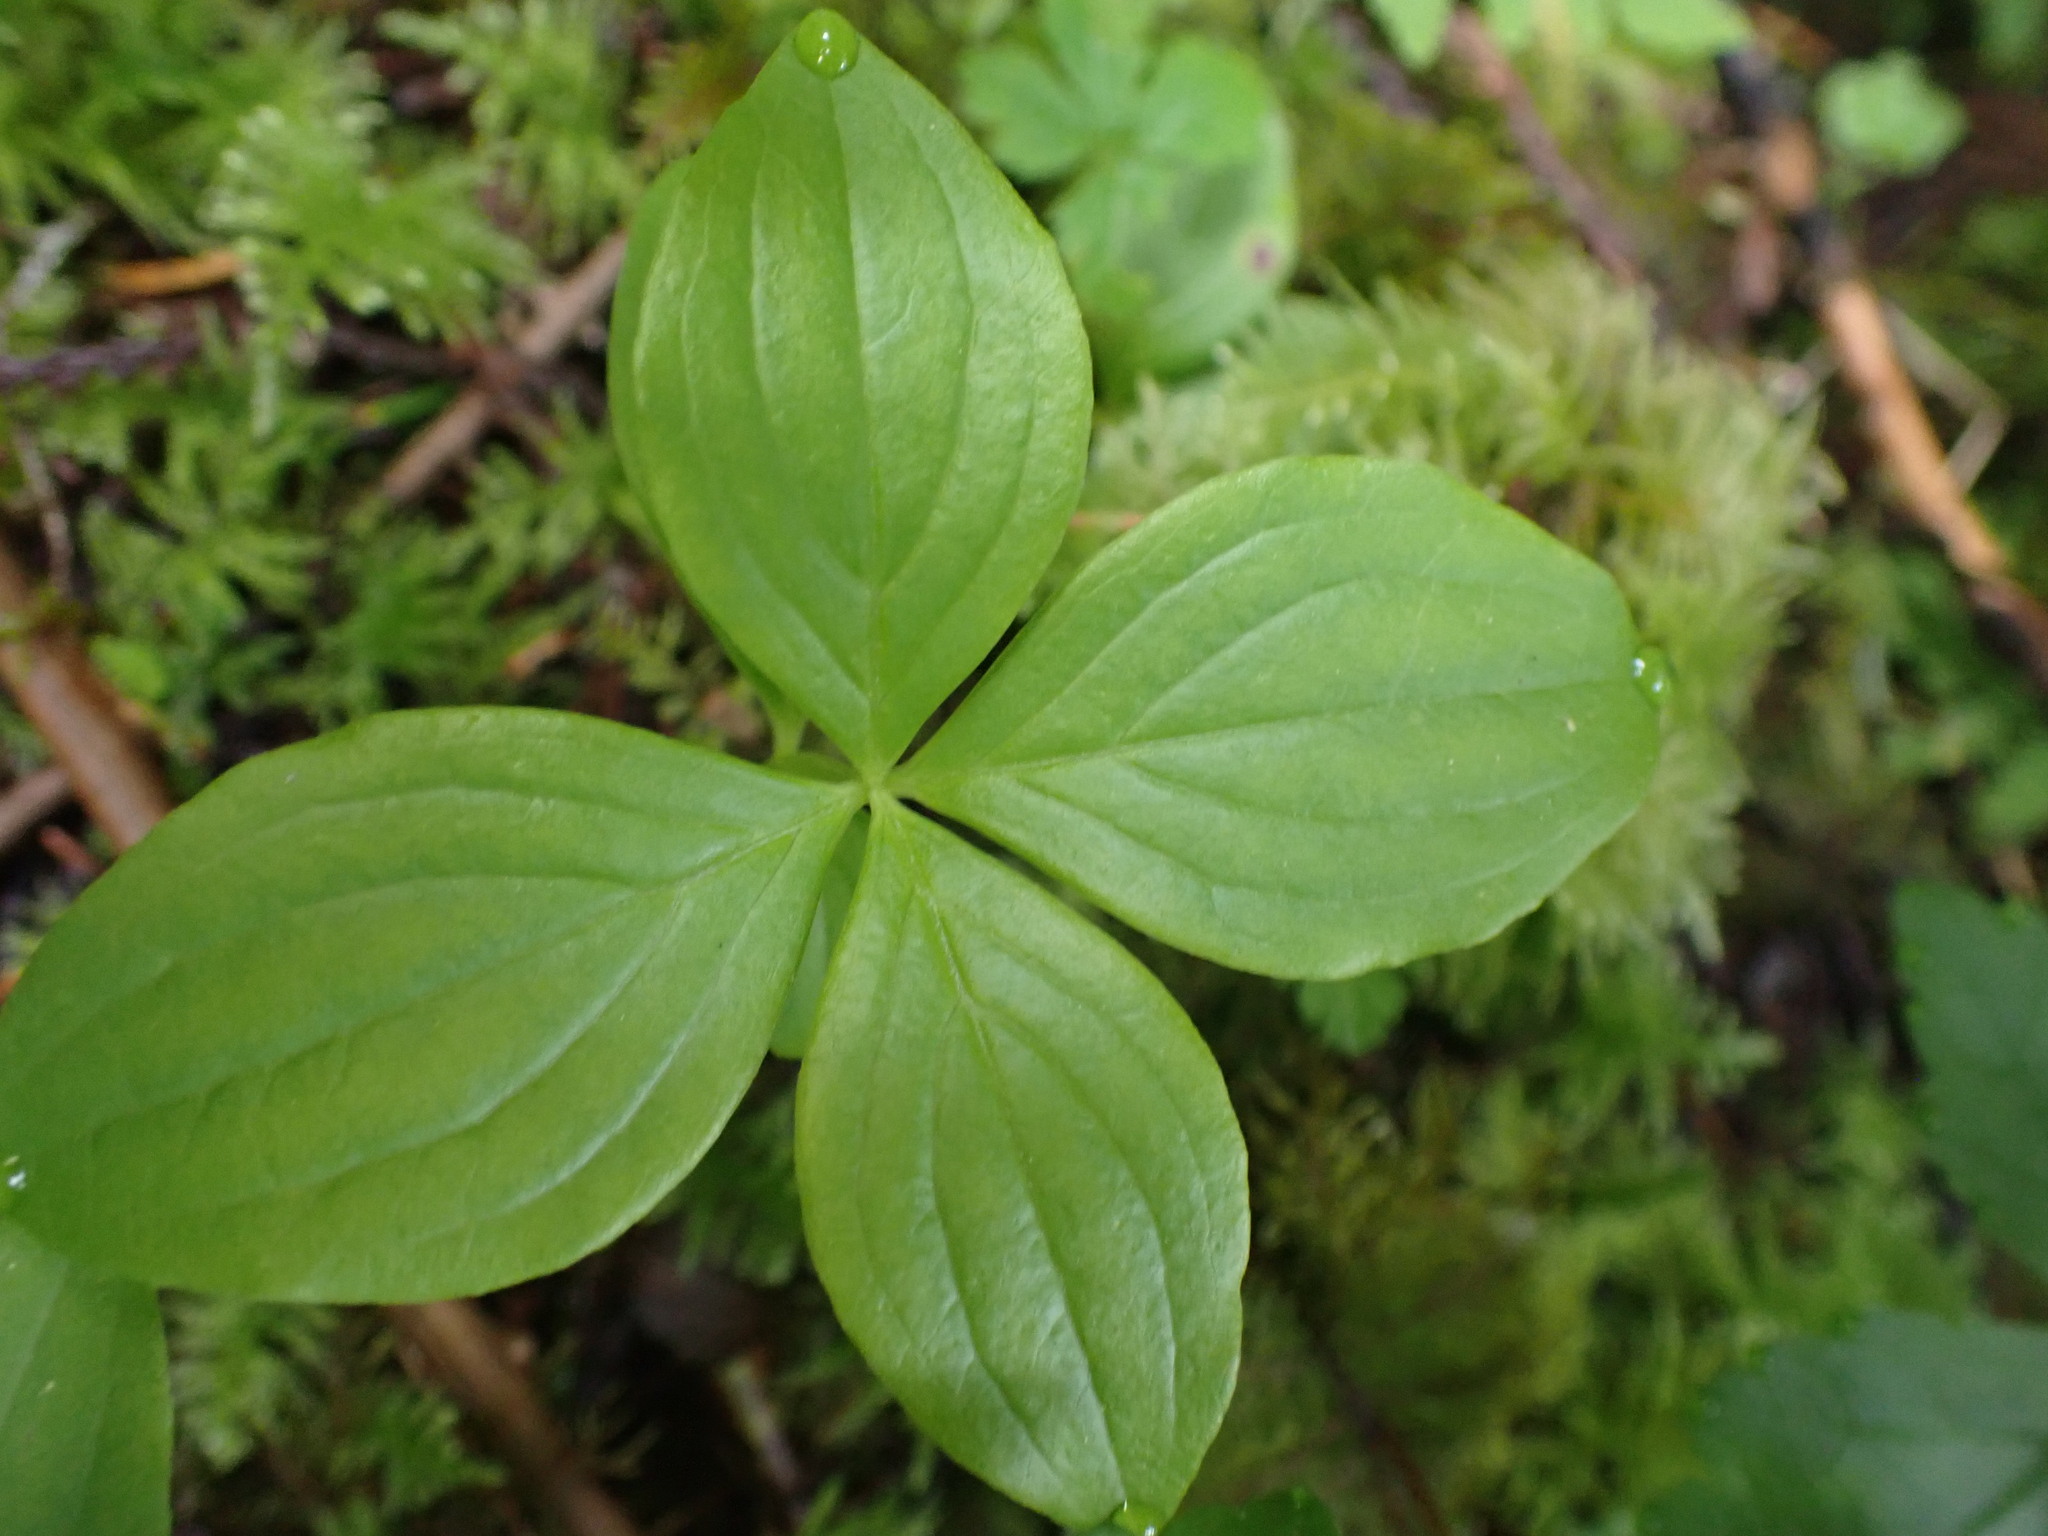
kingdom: Plantae
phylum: Tracheophyta
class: Magnoliopsida
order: Cornales
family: Cornaceae
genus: Cornus
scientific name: Cornus unalaschkensis
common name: Alaska bunchberry
